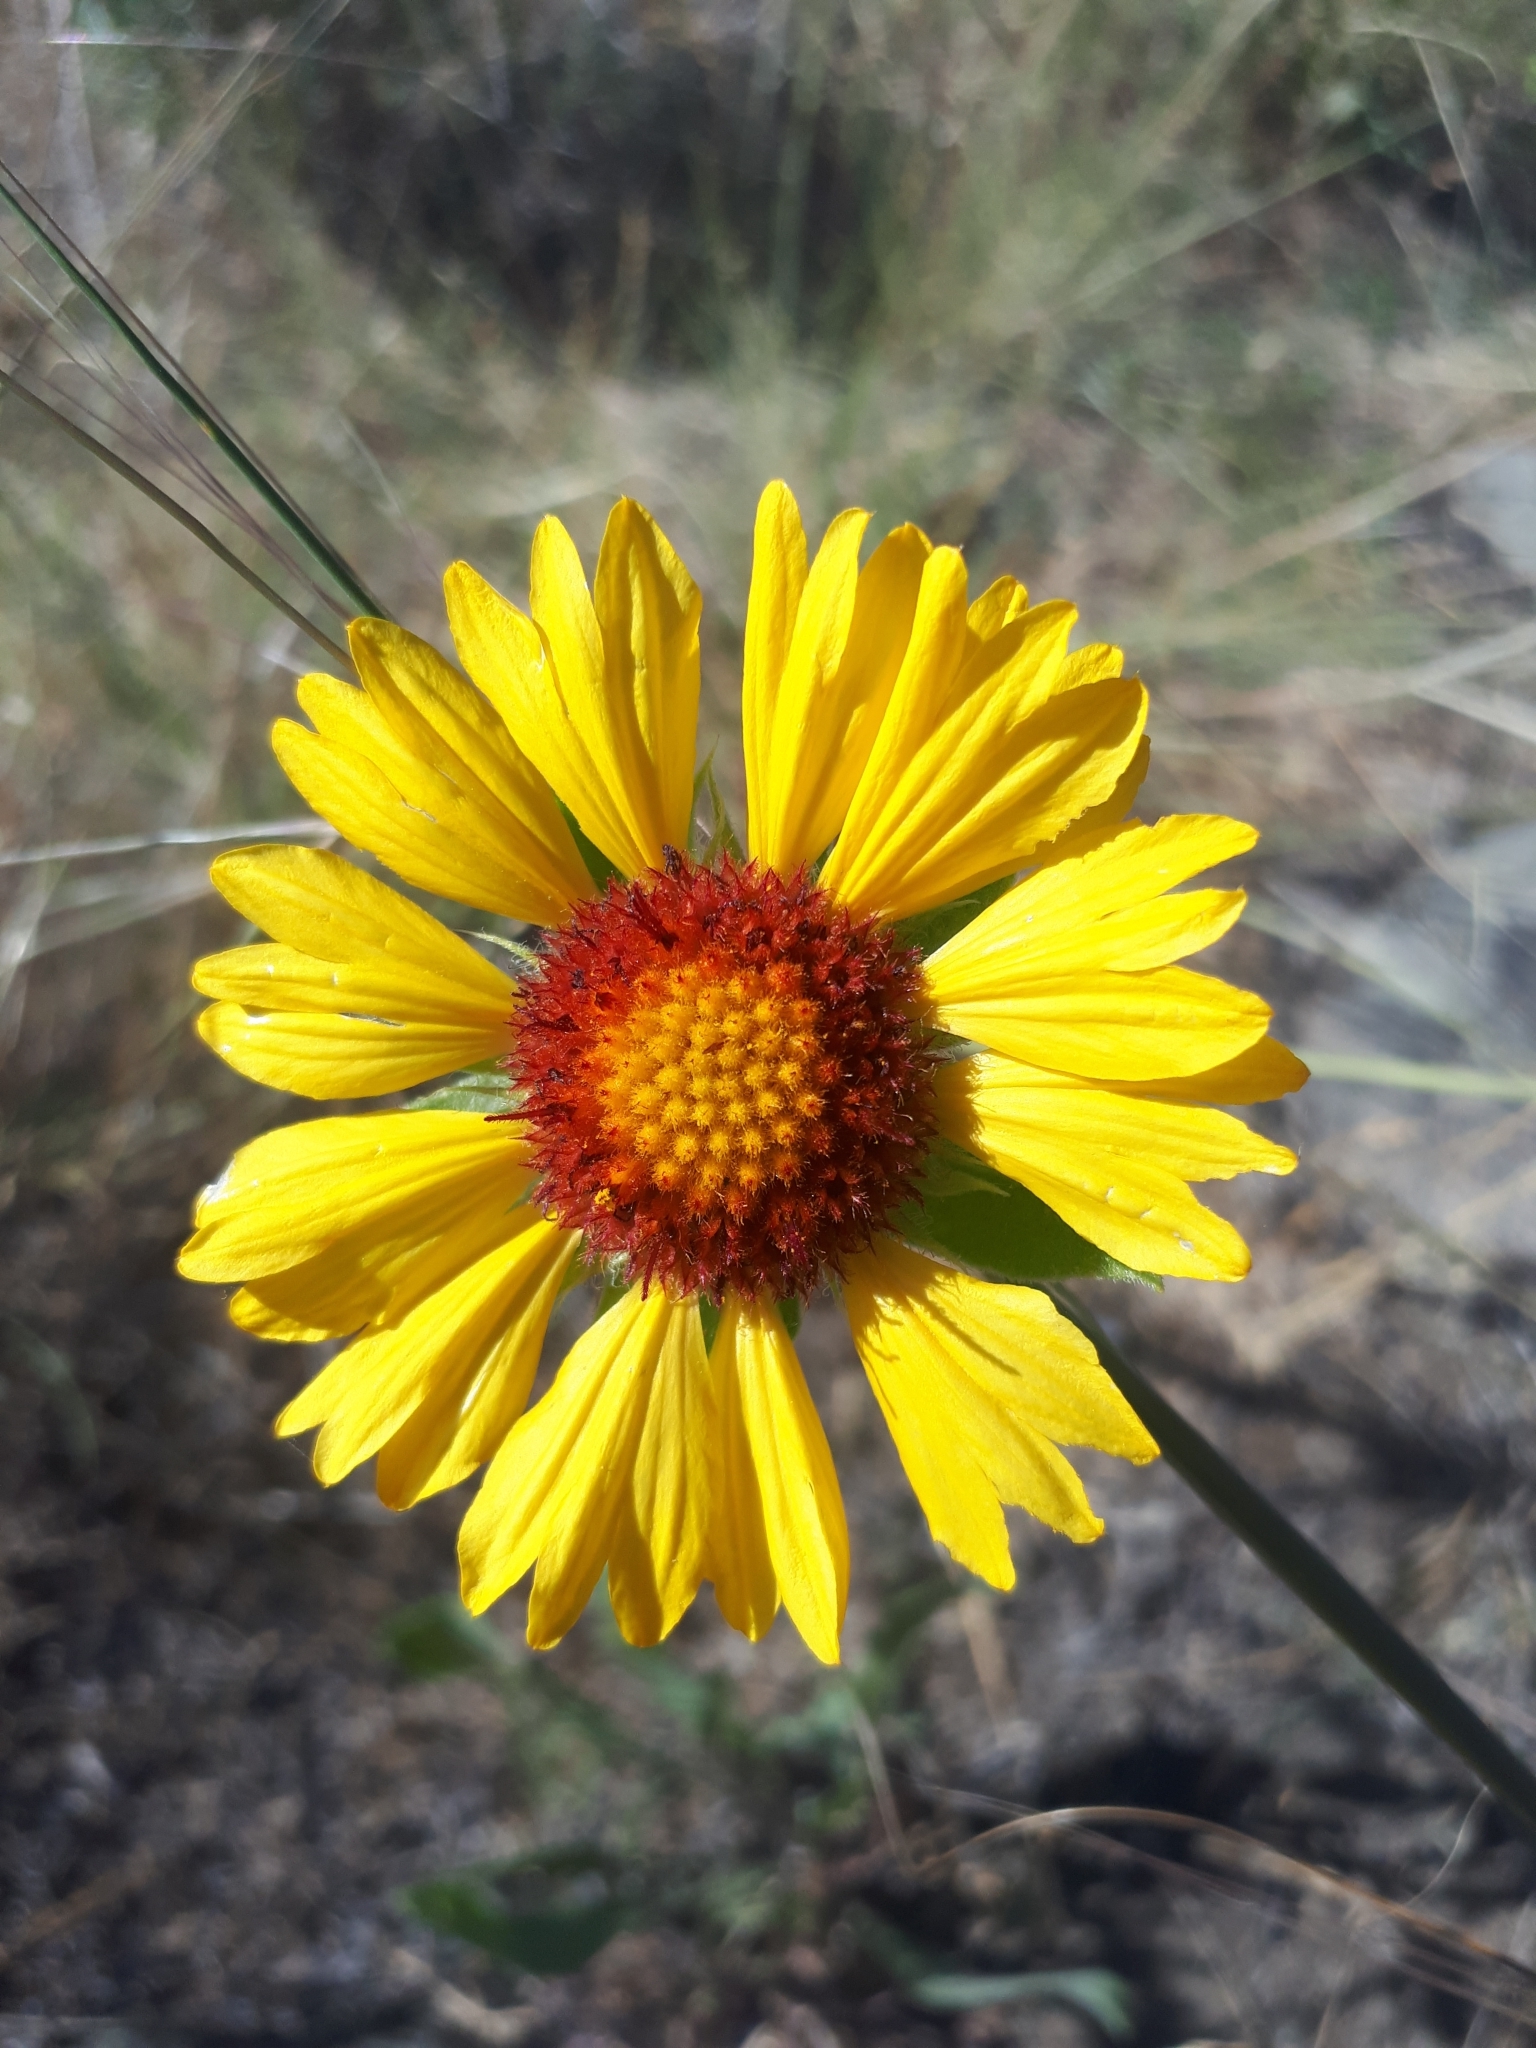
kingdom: Plantae
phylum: Tracheophyta
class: Magnoliopsida
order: Asterales
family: Asteraceae
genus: Gaillardia
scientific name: Gaillardia aristata
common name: Blanket-flower
